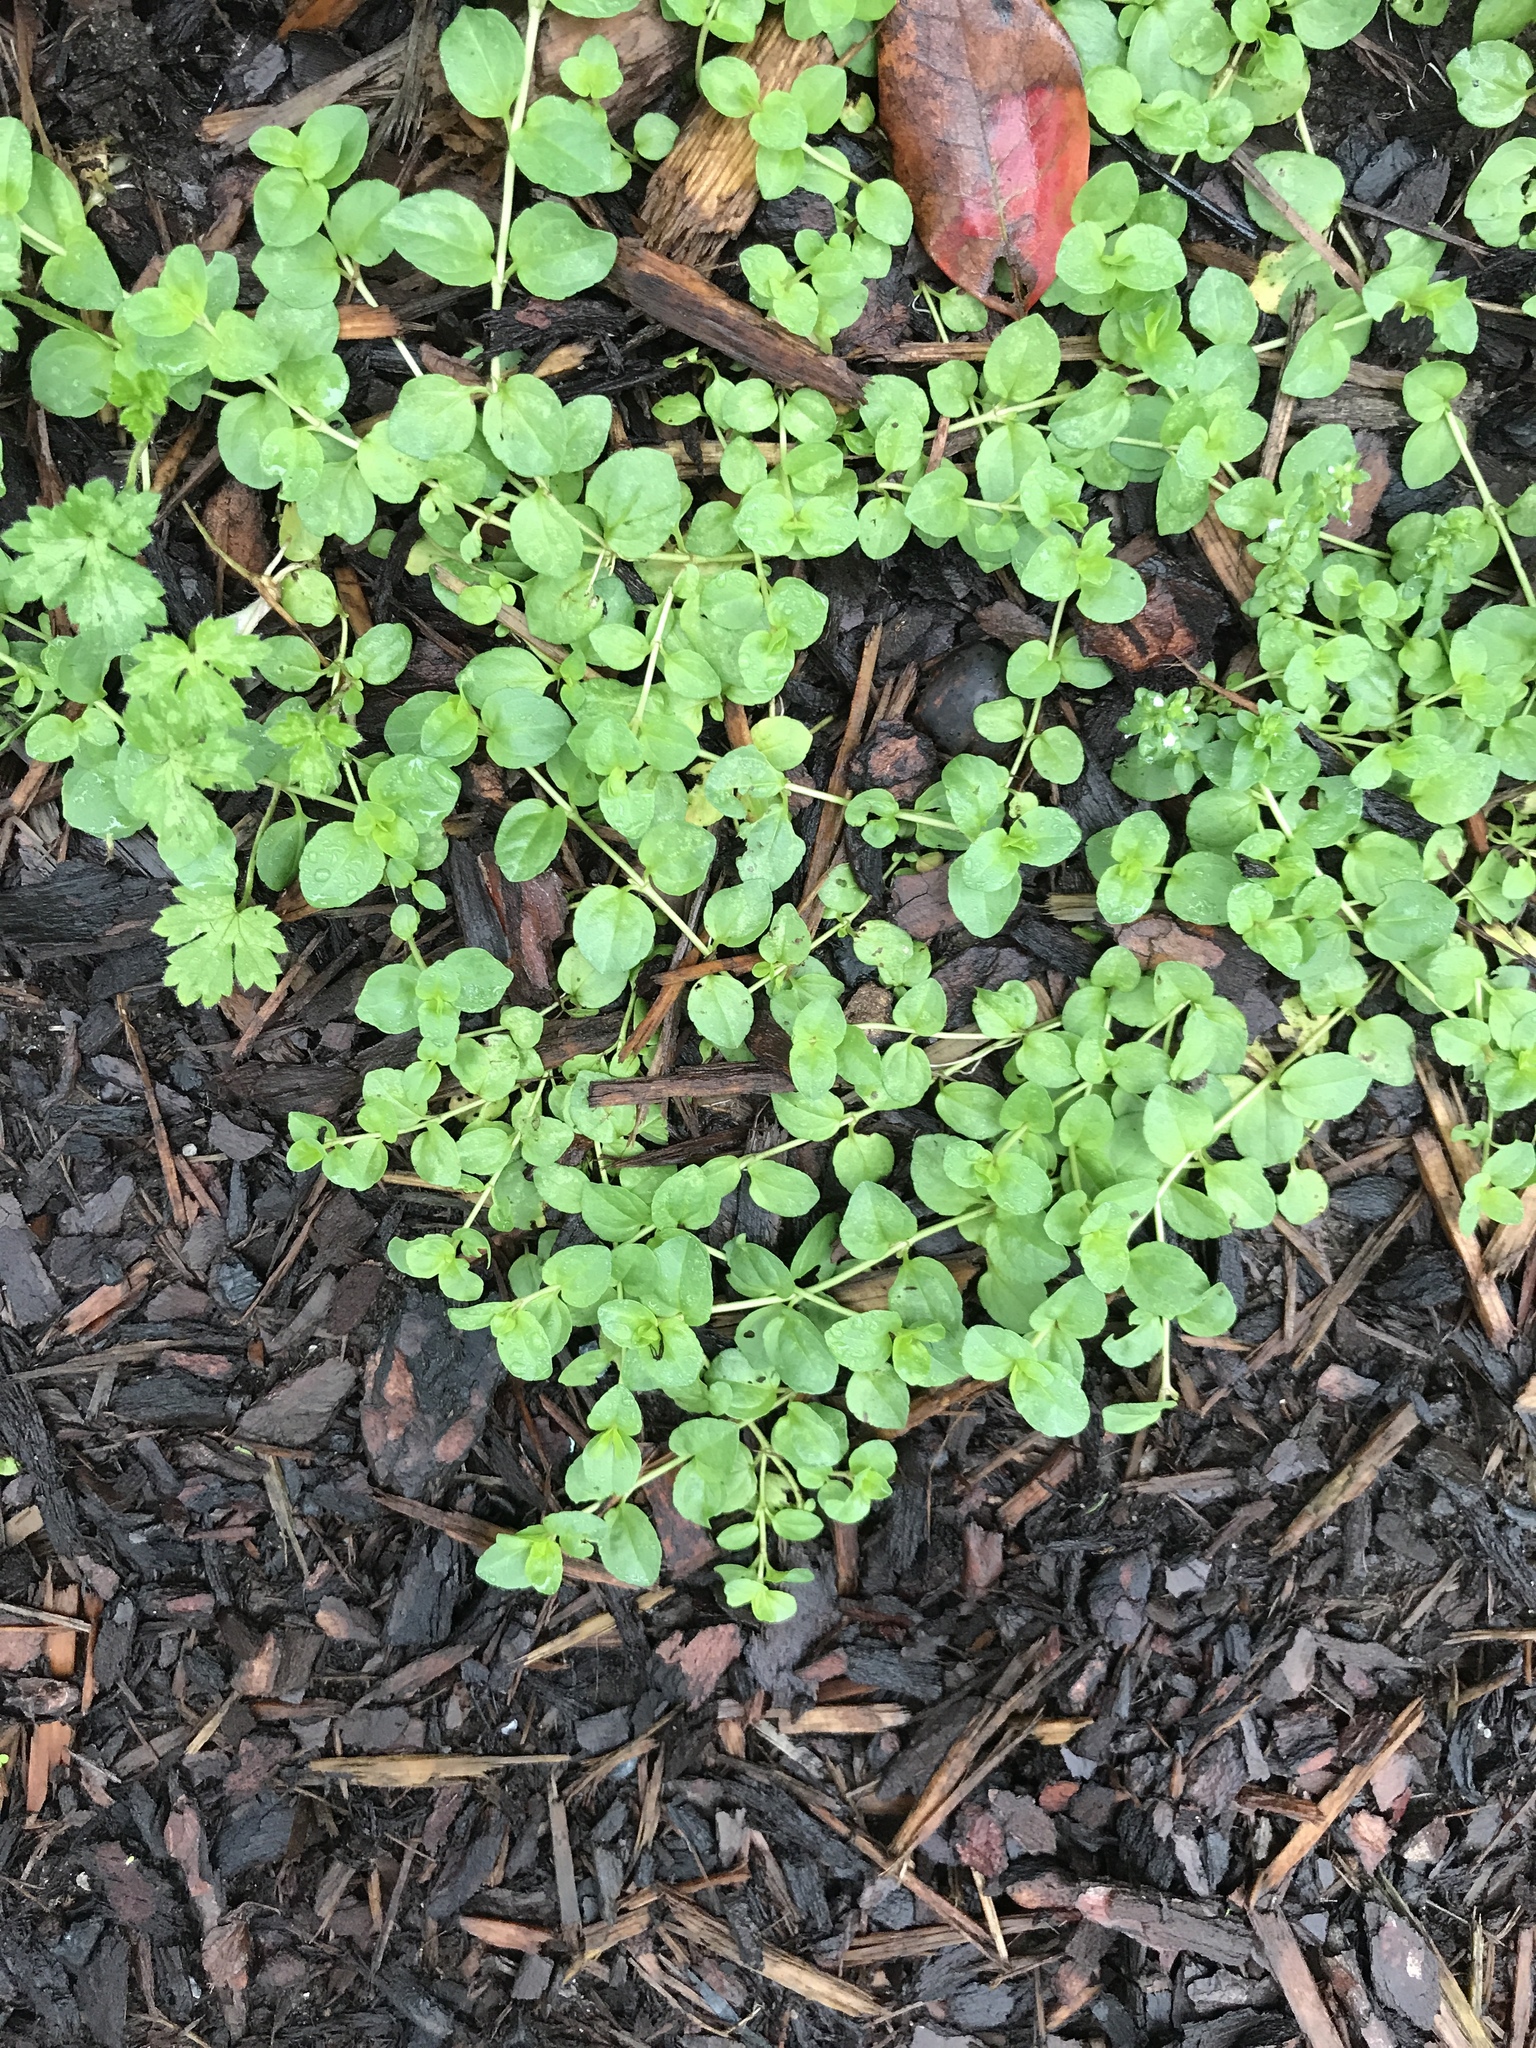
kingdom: Plantae
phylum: Tracheophyta
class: Magnoliopsida
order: Lamiales
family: Plantaginaceae
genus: Veronica
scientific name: Veronica serpyllifolia
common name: Thyme-leaved speedwell
